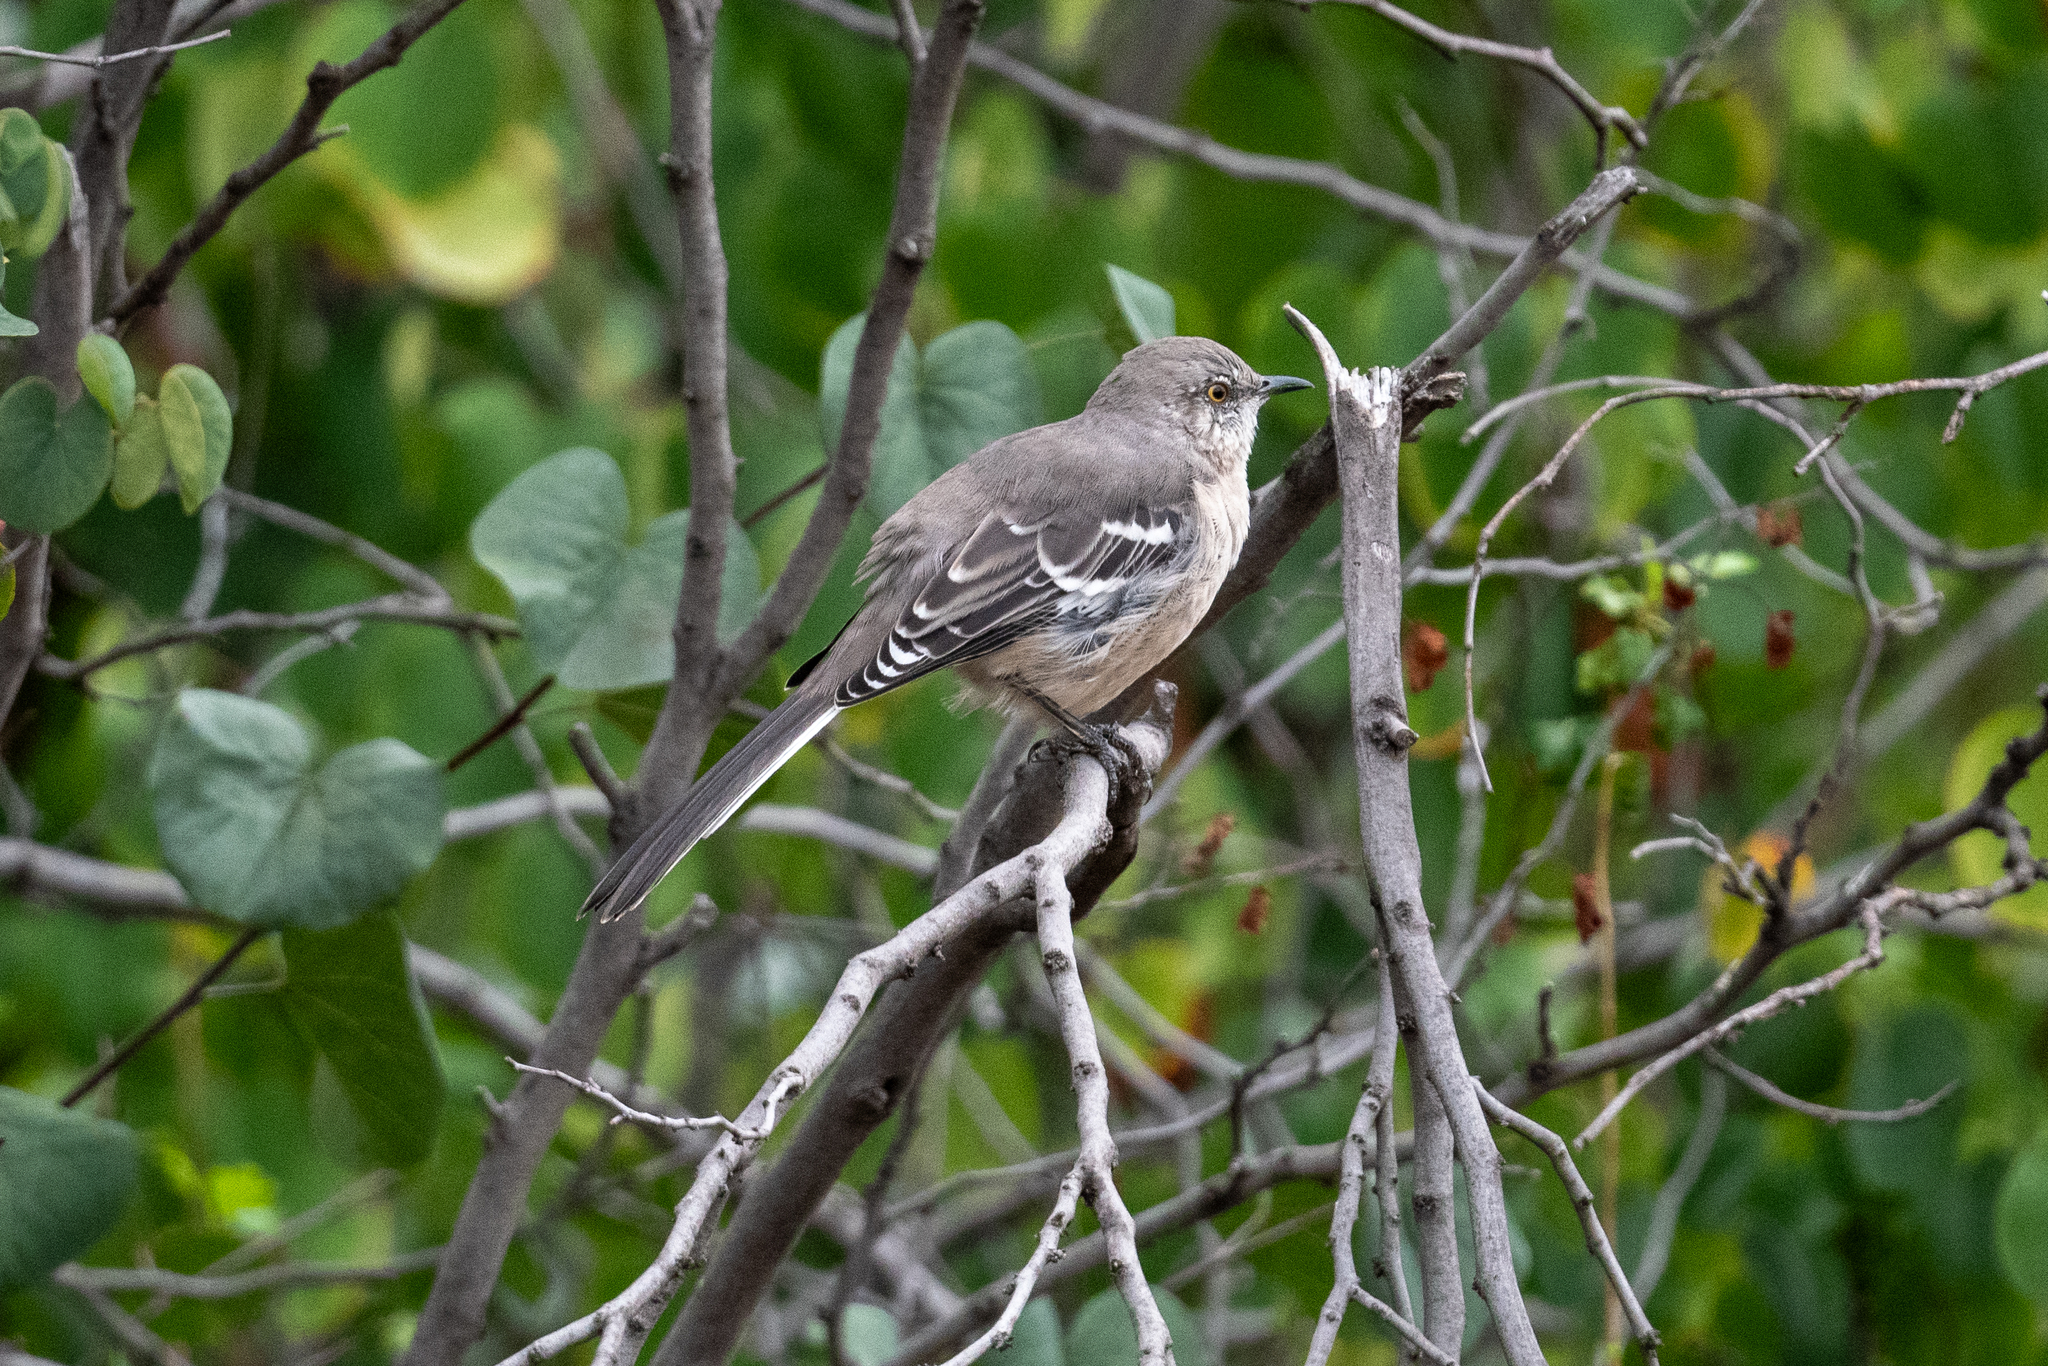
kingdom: Animalia
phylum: Chordata
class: Aves
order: Passeriformes
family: Mimidae
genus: Mimus
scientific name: Mimus polyglottos
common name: Northern mockingbird
